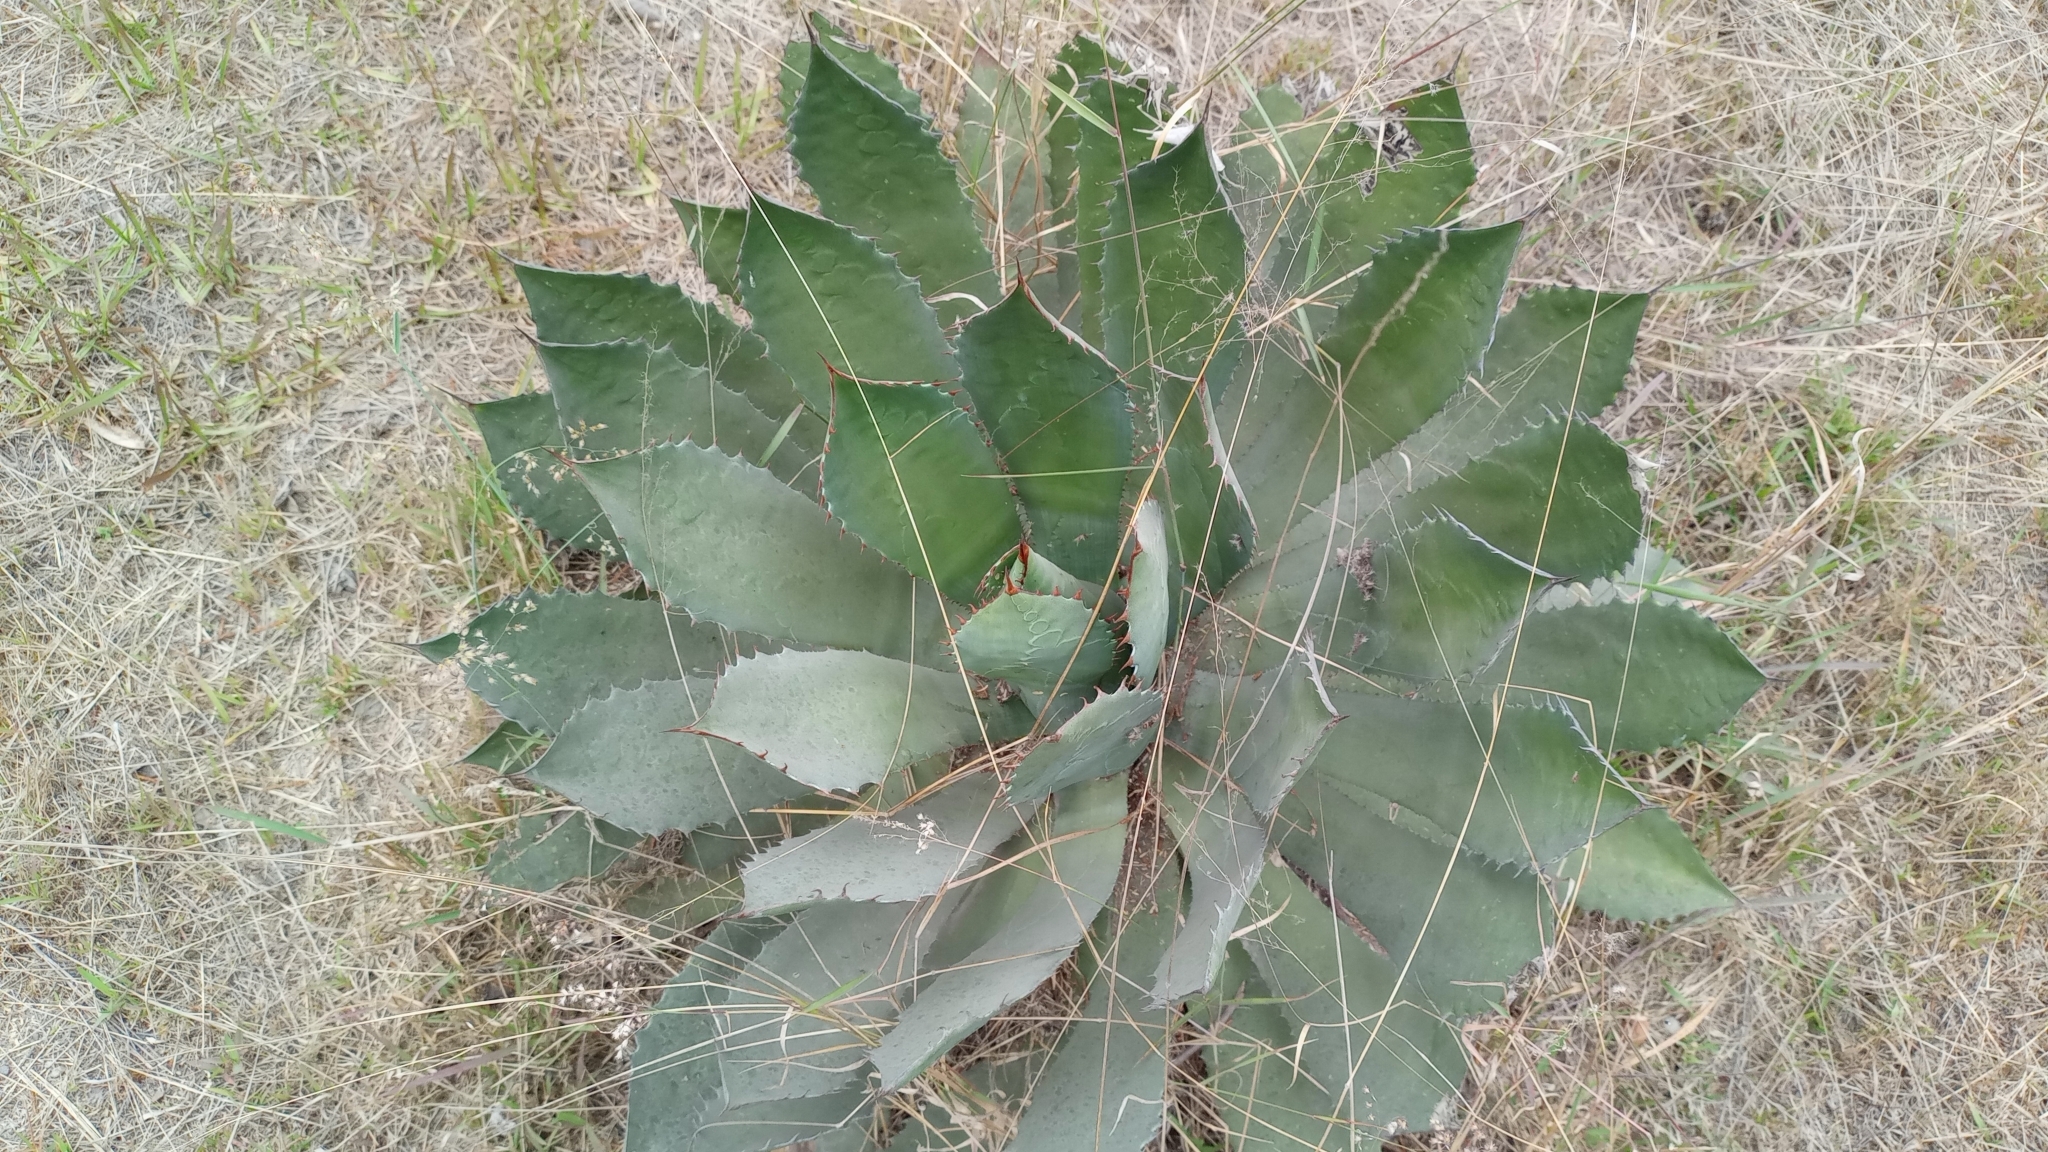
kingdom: Plantae
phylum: Tracheophyta
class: Liliopsida
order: Asparagales
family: Asparagaceae
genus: Agave
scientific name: Agave inaequidens
